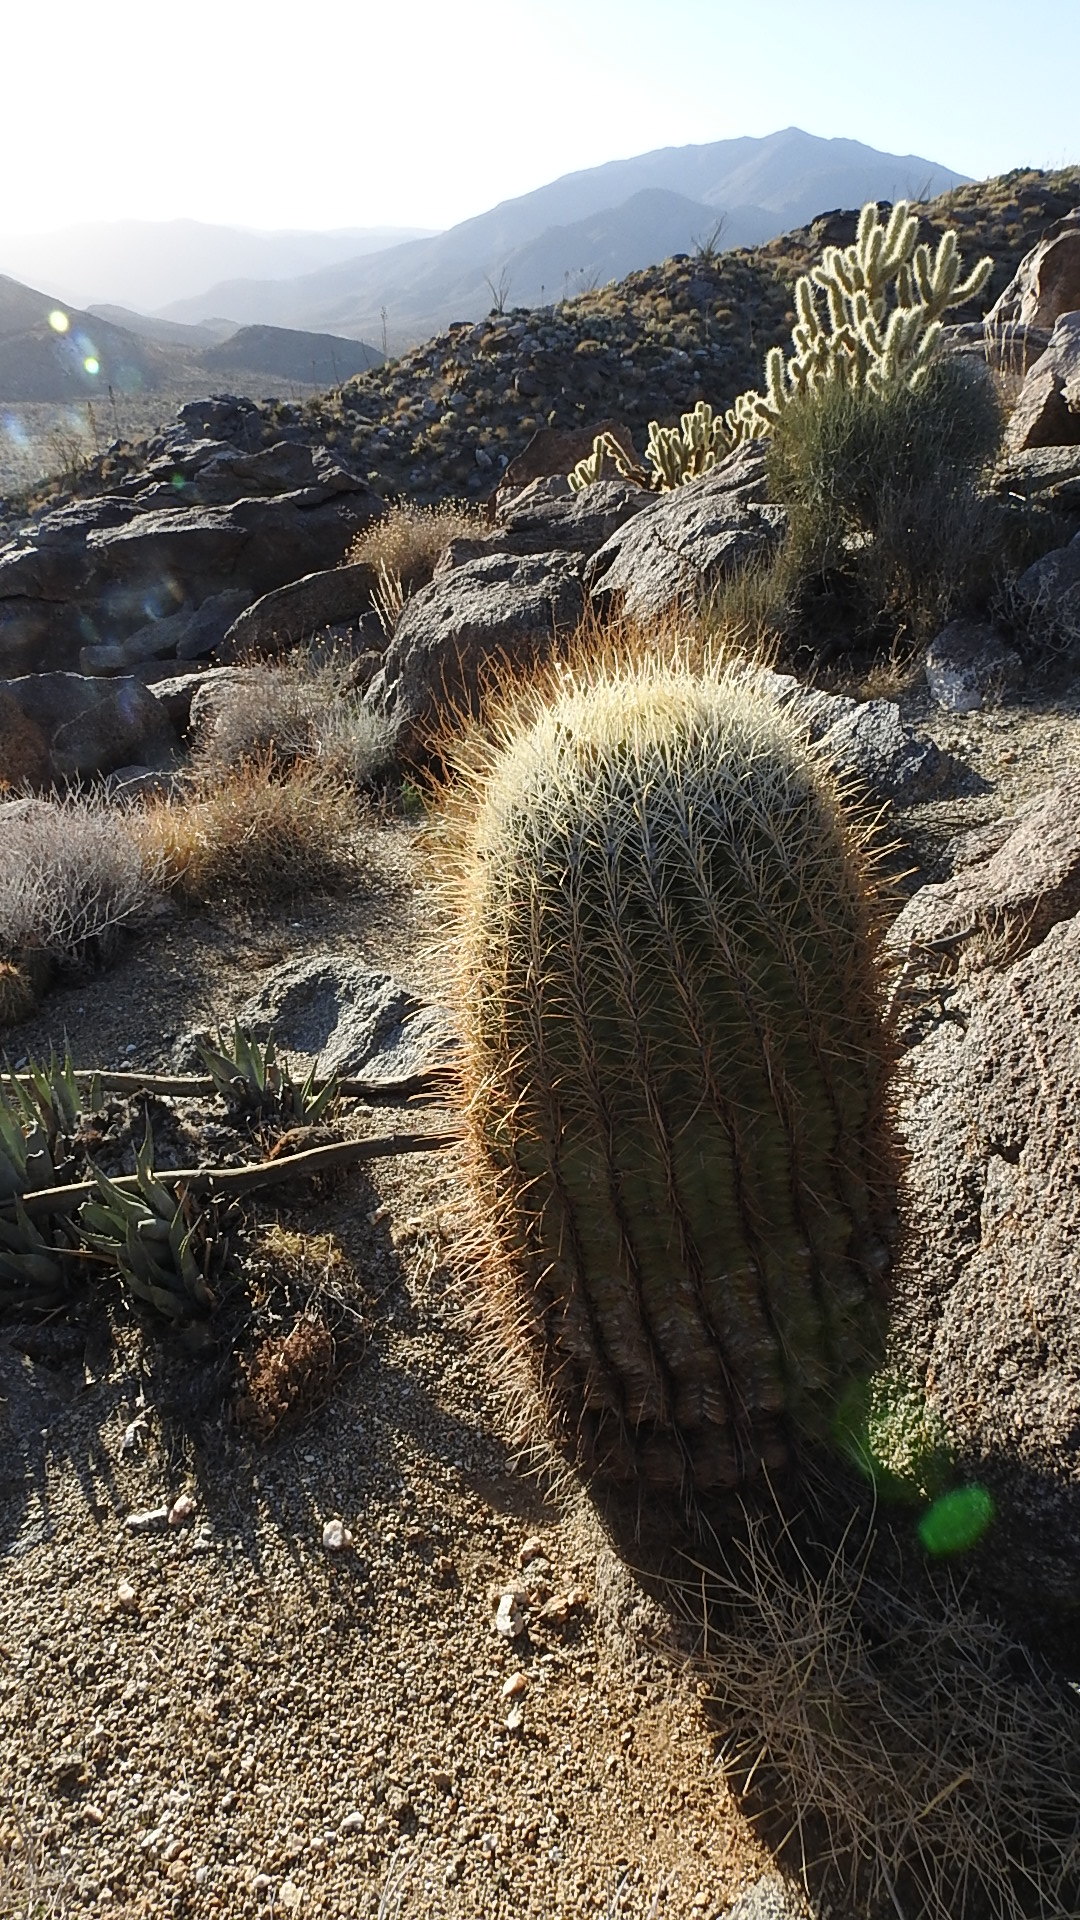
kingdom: Plantae
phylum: Tracheophyta
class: Magnoliopsida
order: Caryophyllales
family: Cactaceae
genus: Ferocactus
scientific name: Ferocactus cylindraceus
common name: California barrel cactus
